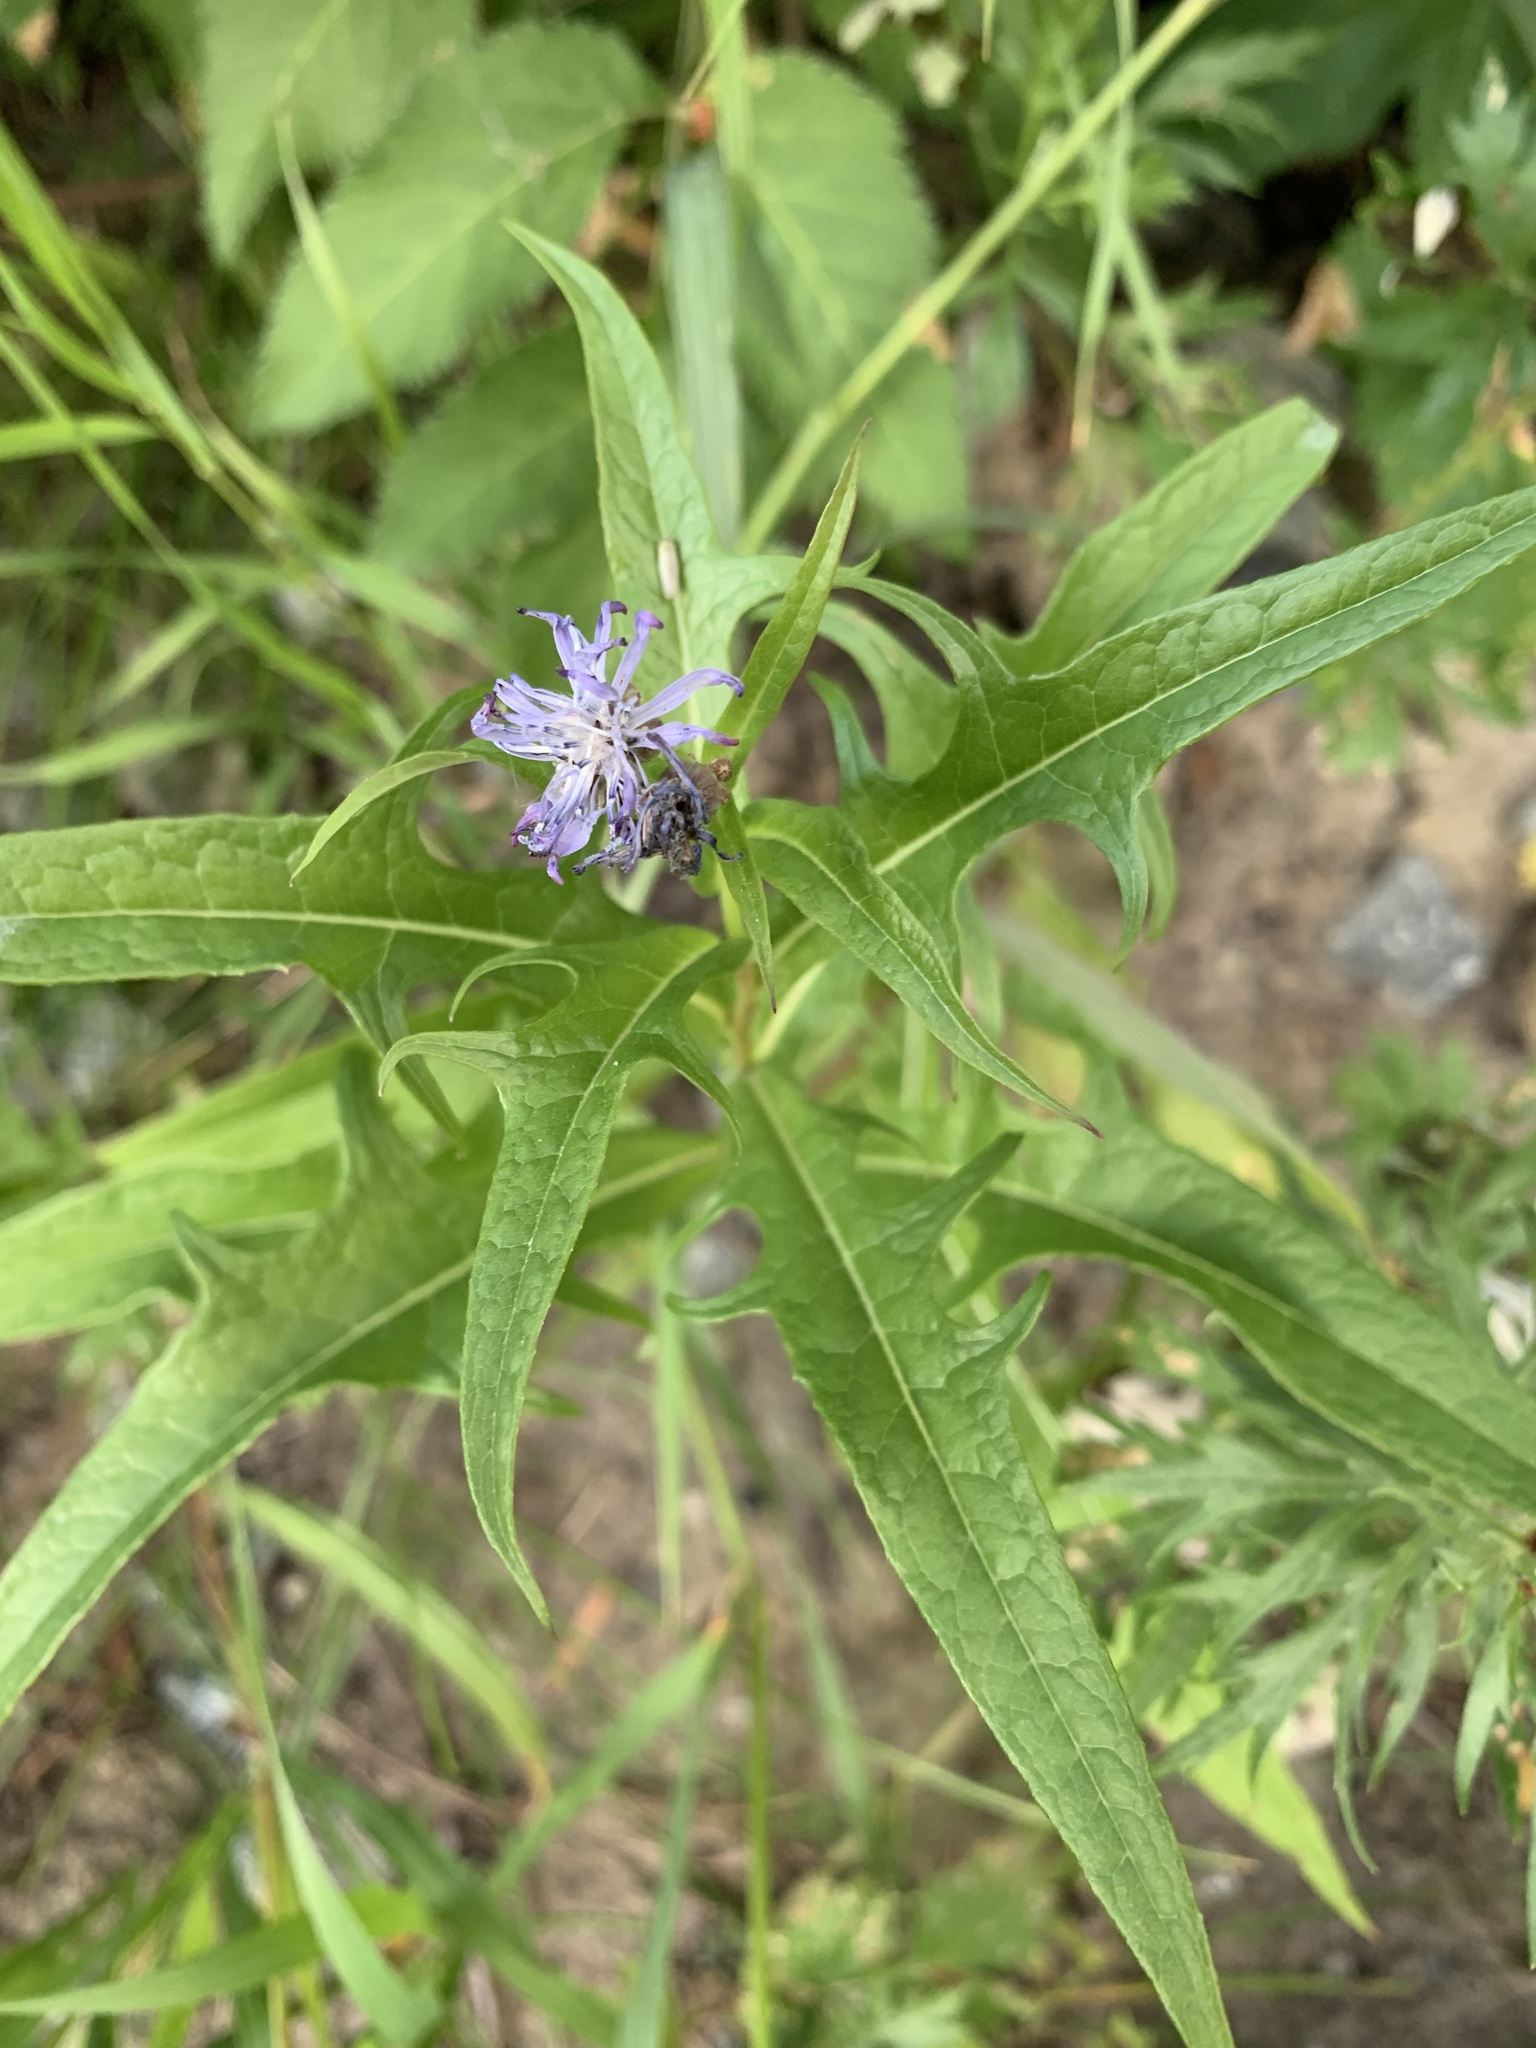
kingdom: Plantae
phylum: Tracheophyta
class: Magnoliopsida
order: Asterales
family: Asteraceae
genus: Lactuca
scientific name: Lactuca sibirica
